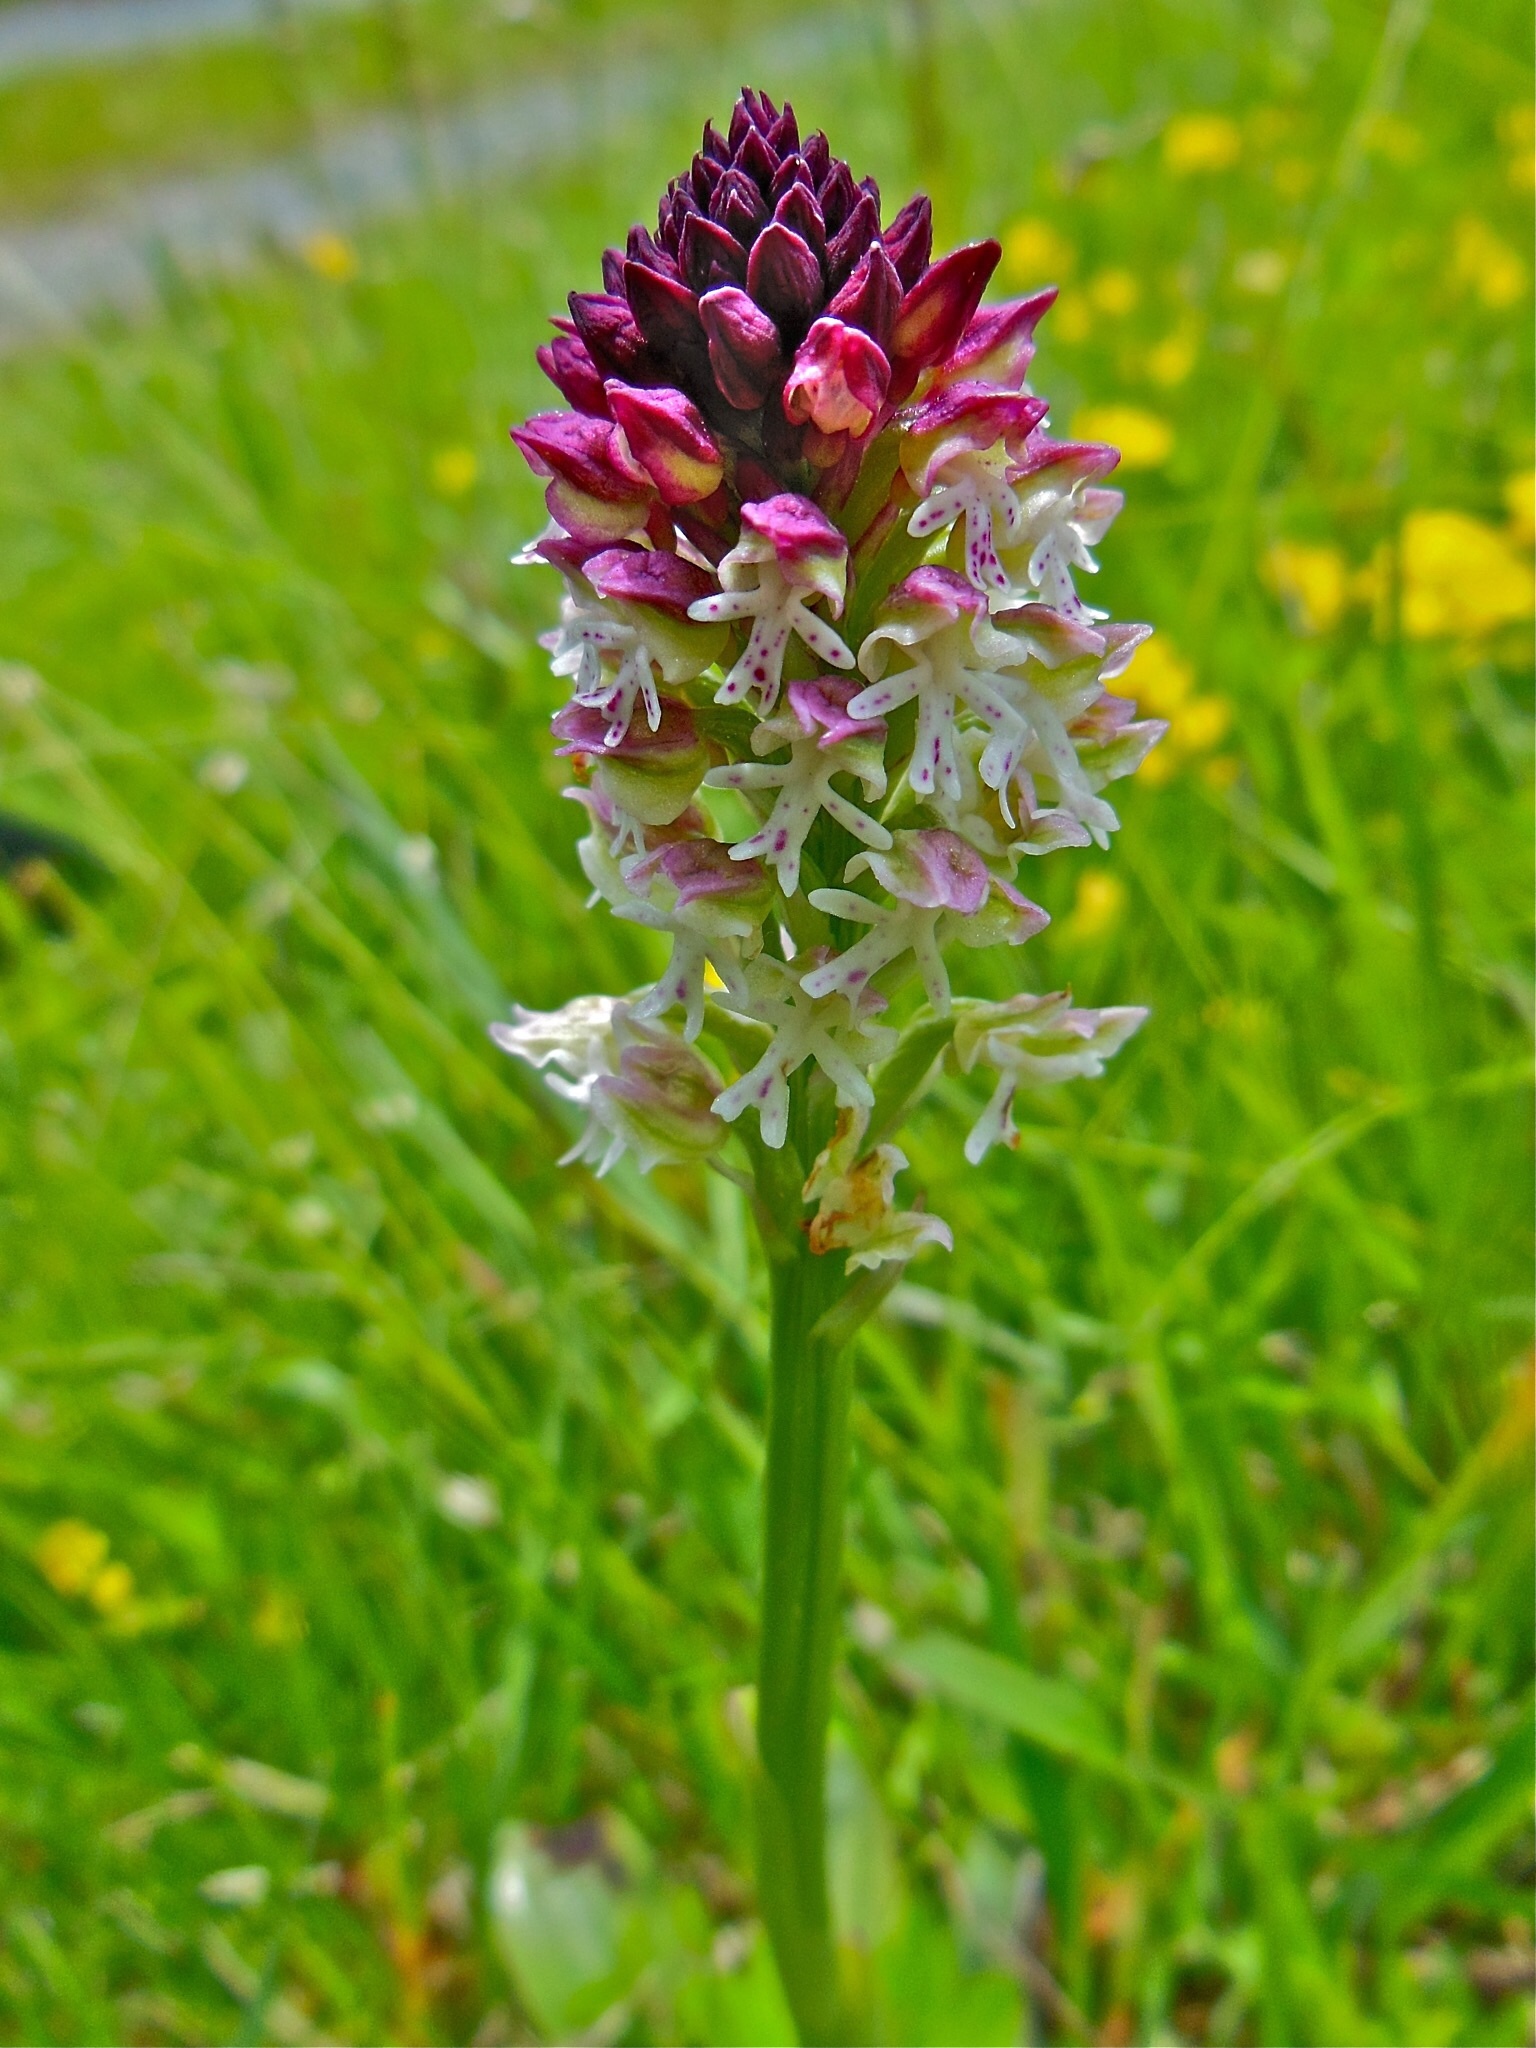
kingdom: Plantae
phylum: Tracheophyta
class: Liliopsida
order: Asparagales
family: Orchidaceae
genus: Neotinea
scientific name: Neotinea ustulata
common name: Burnt orchid
